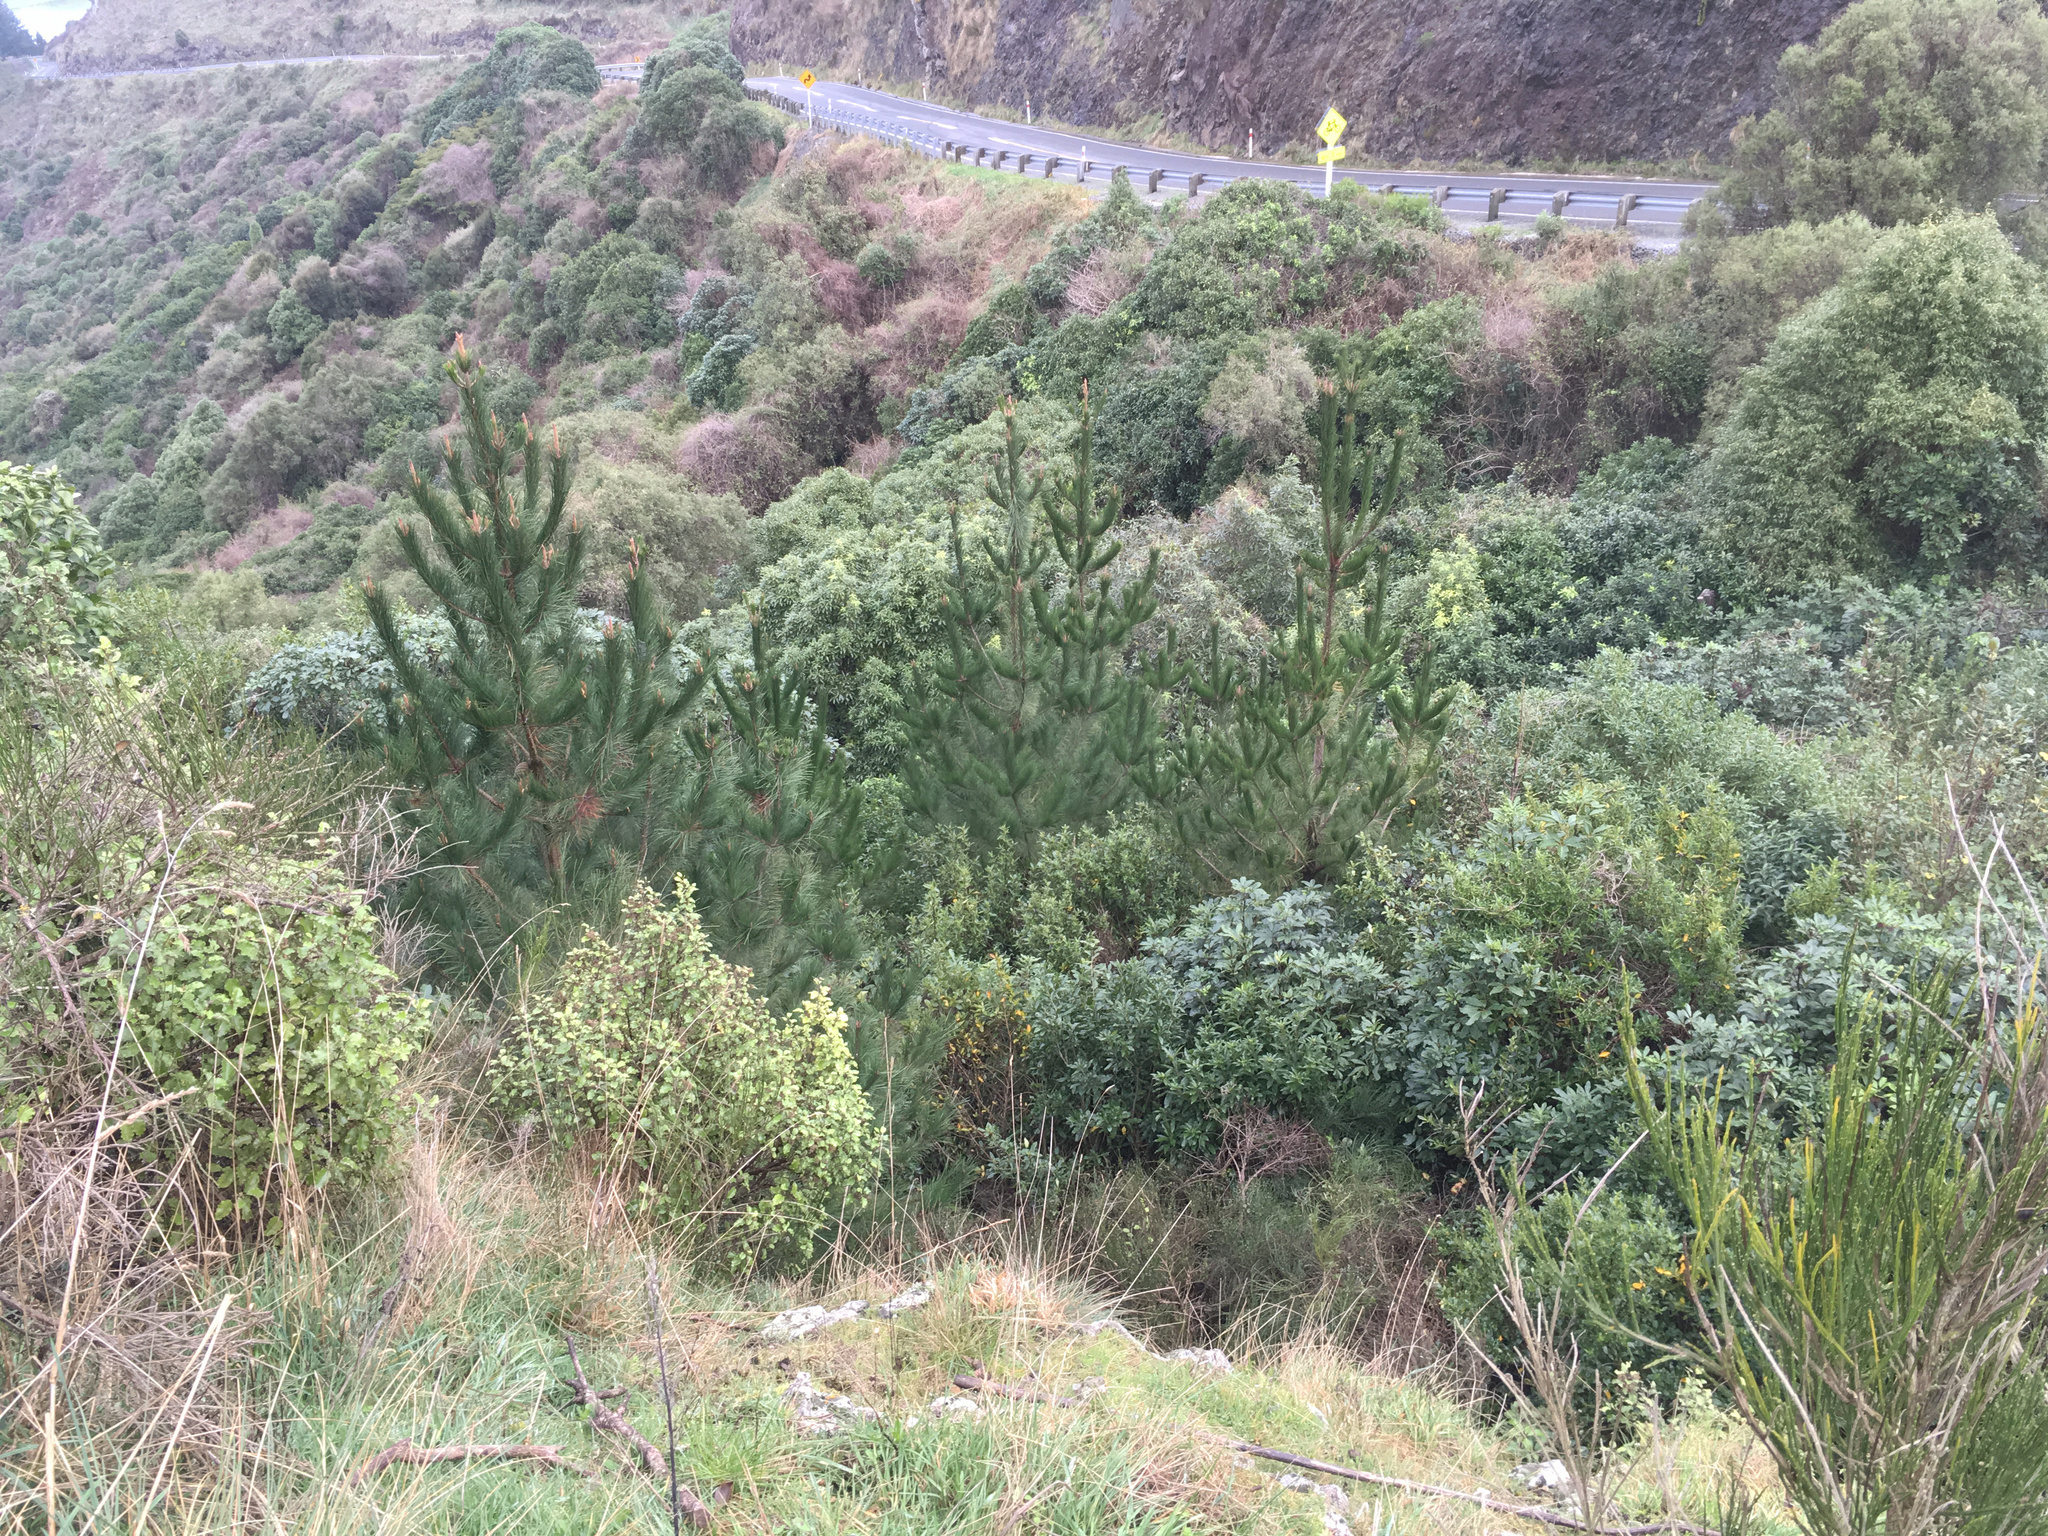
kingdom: Plantae
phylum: Tracheophyta
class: Pinopsida
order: Pinales
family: Pinaceae
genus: Pinus
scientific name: Pinus radiata
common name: Monterey pine
